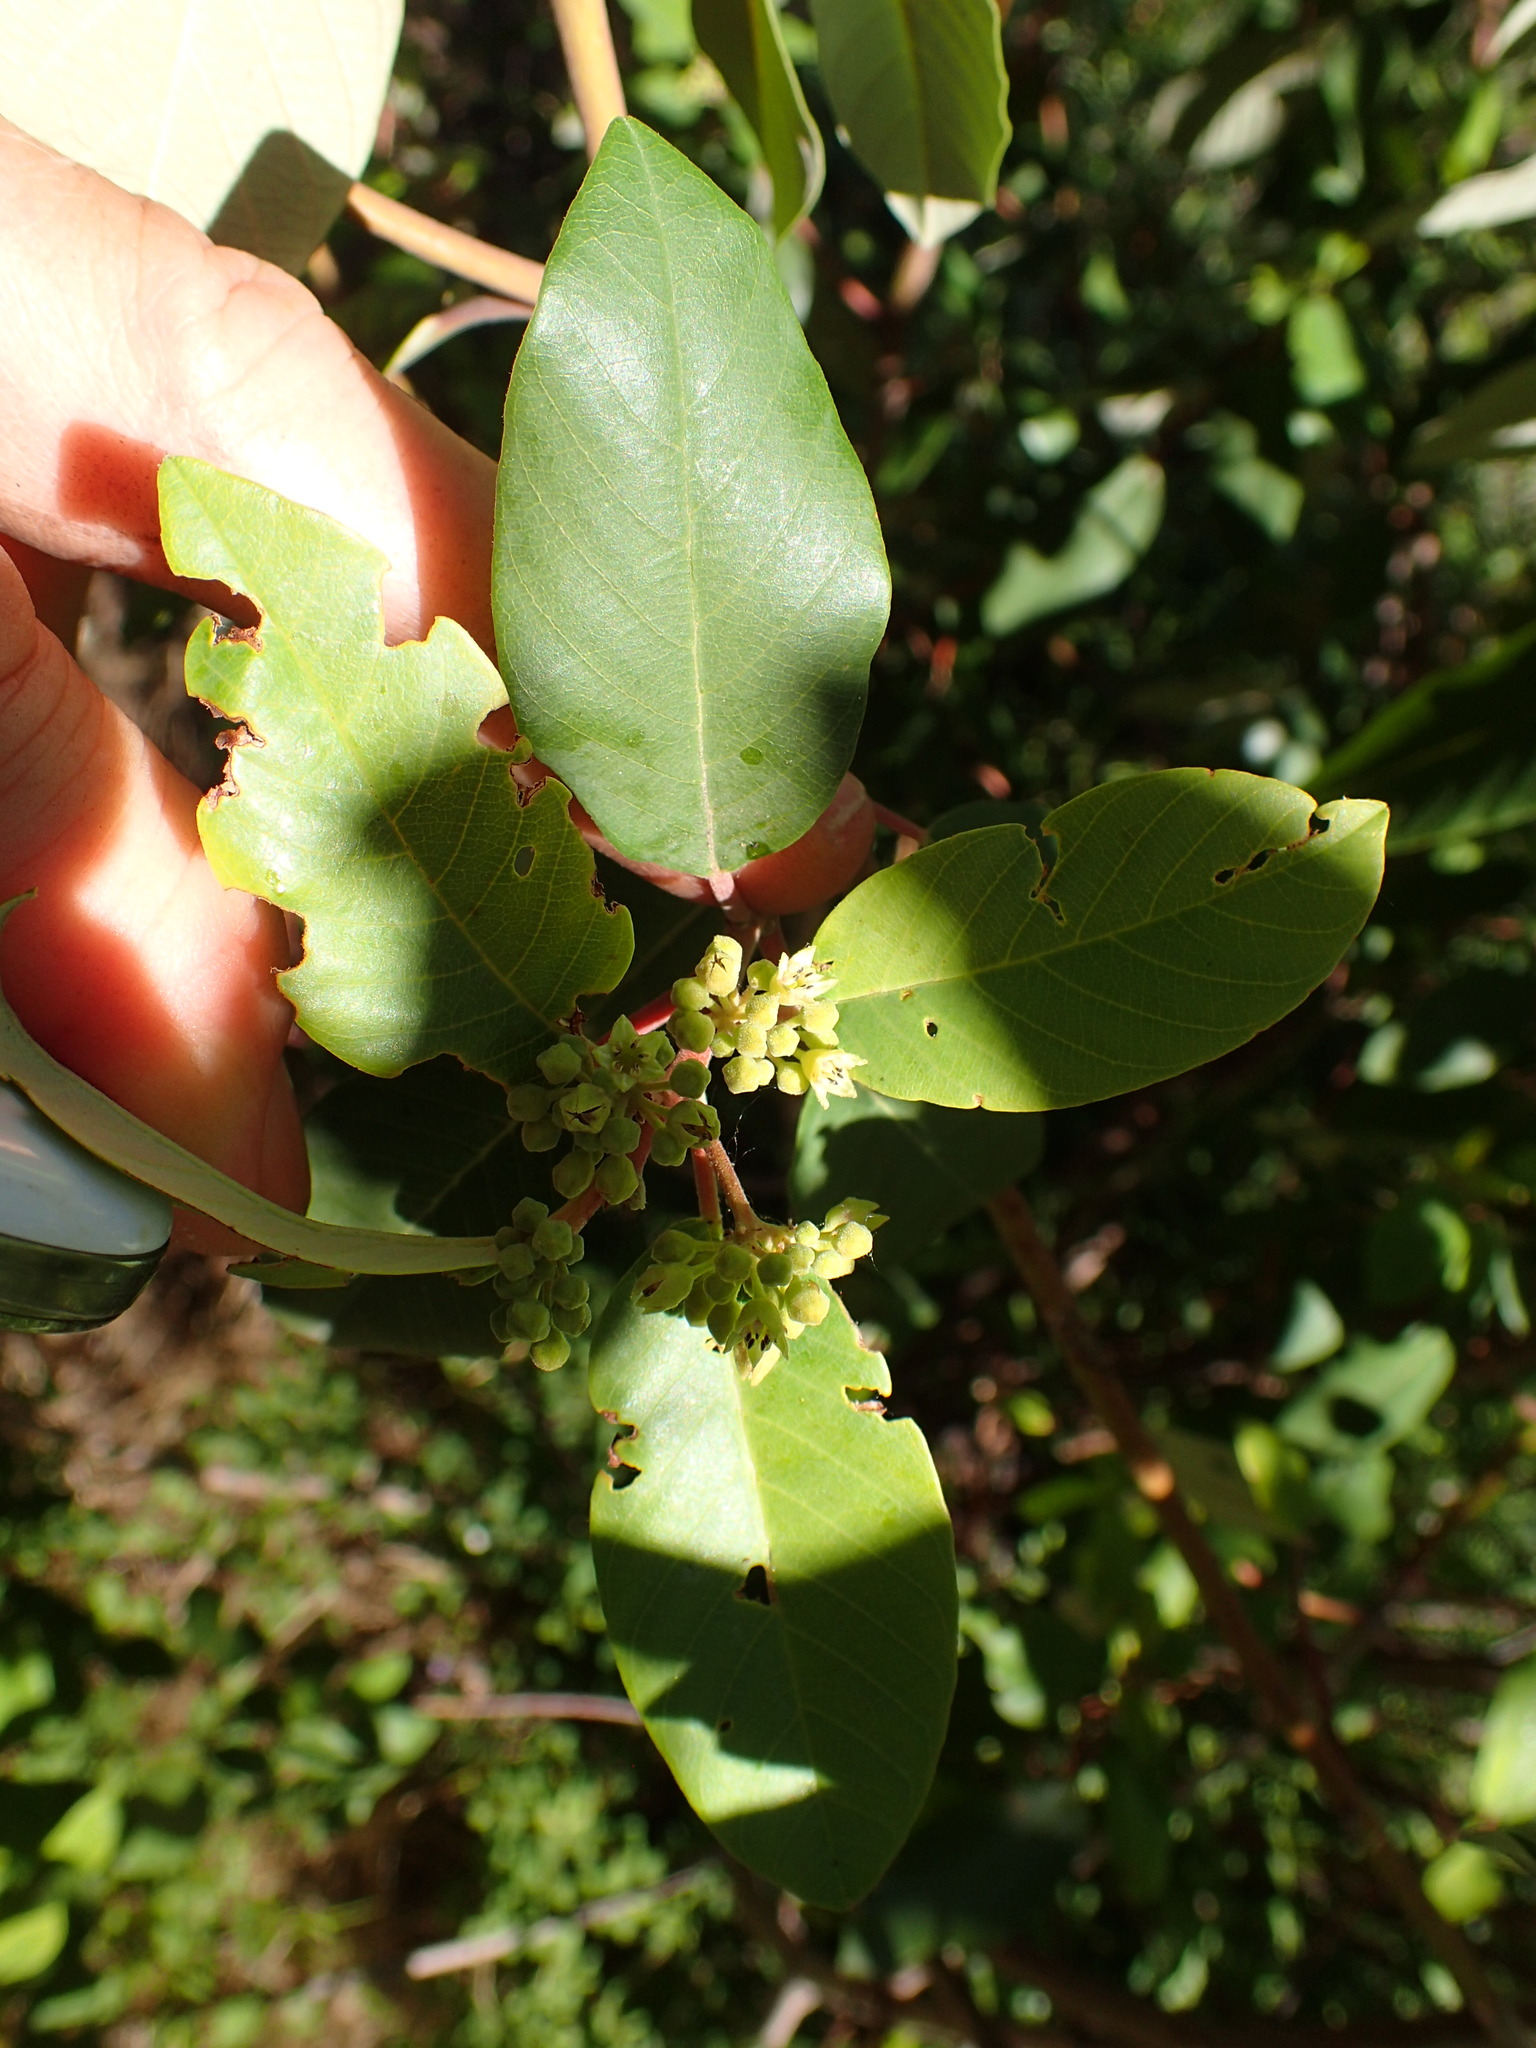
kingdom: Plantae
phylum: Tracheophyta
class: Magnoliopsida
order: Rosales
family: Rhamnaceae
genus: Frangula
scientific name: Frangula californica
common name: California buckthorn
